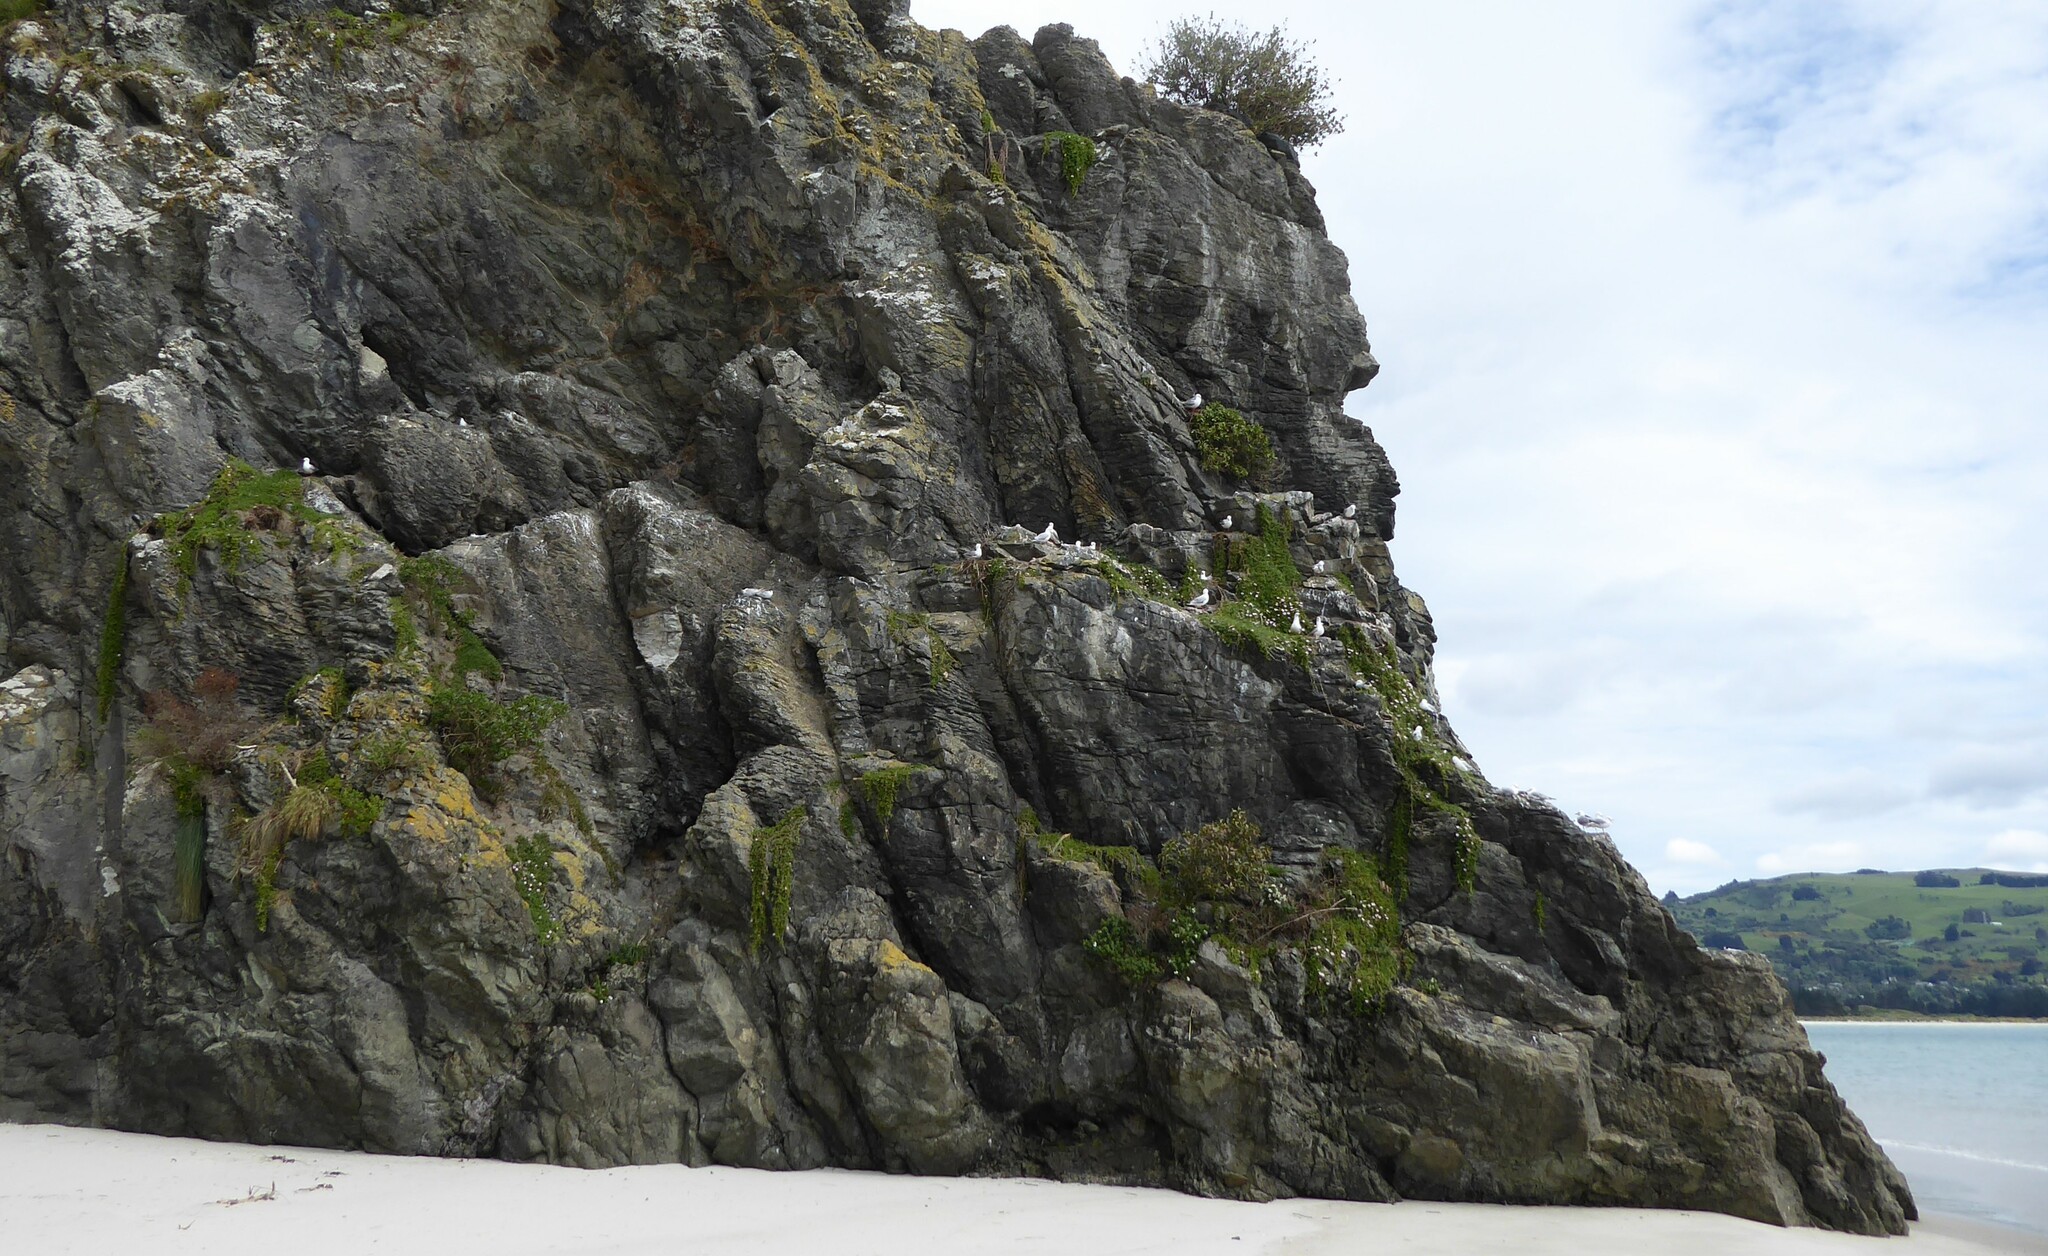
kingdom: Animalia
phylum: Chordata
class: Aves
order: Charadriiformes
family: Laridae
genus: Chroicocephalus
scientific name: Chroicocephalus novaehollandiae
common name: Silver gull
